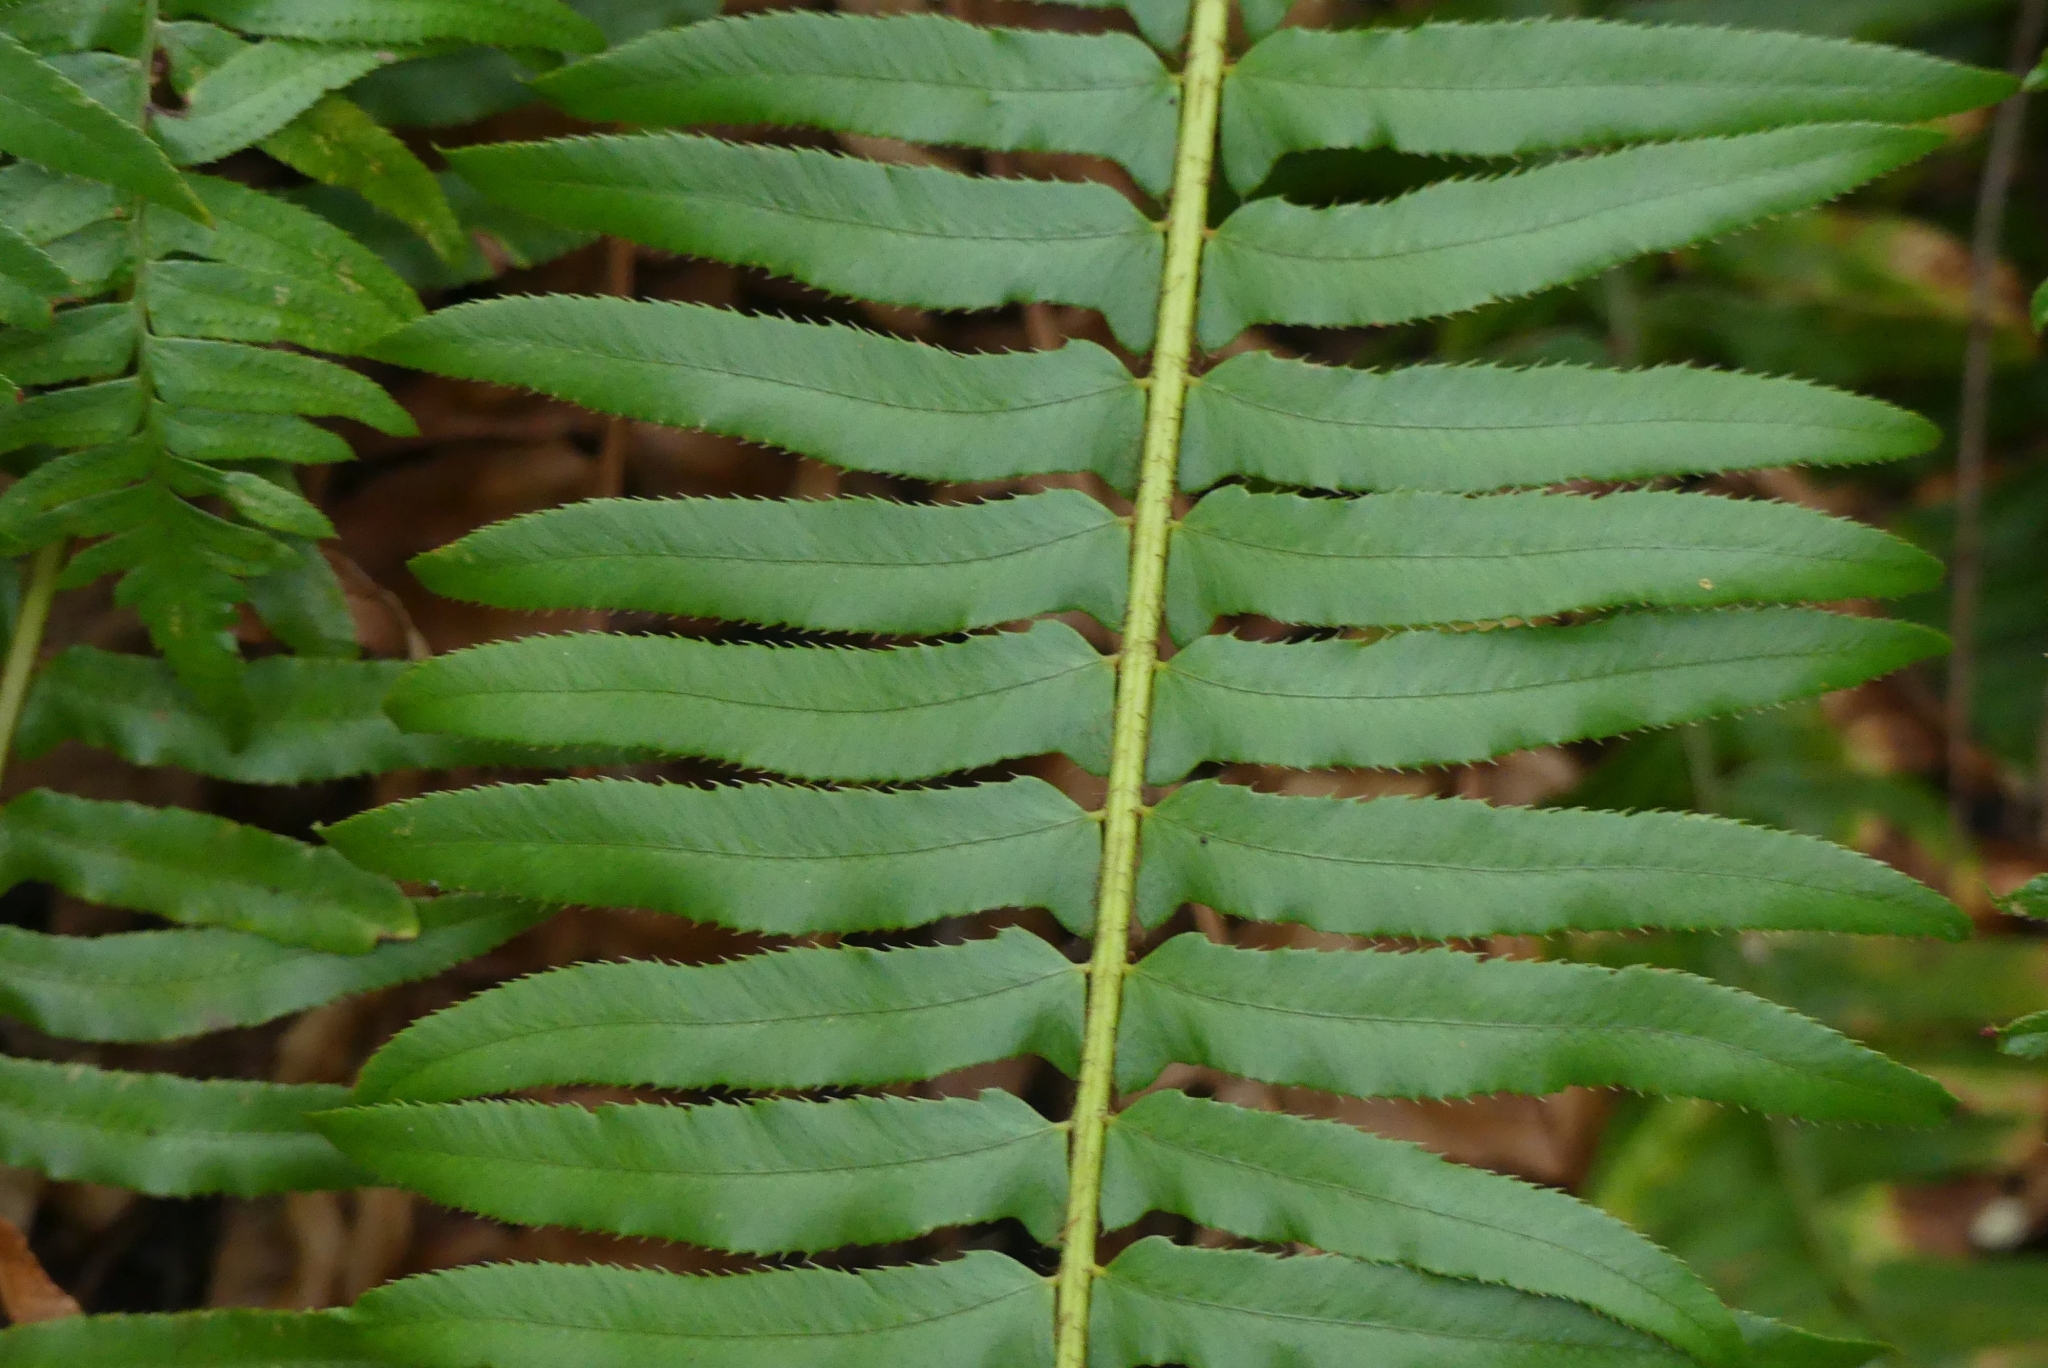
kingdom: Plantae
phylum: Tracheophyta
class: Polypodiopsida
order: Polypodiales
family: Dryopteridaceae
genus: Polystichum
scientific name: Polystichum munitum
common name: Western sword-fern
